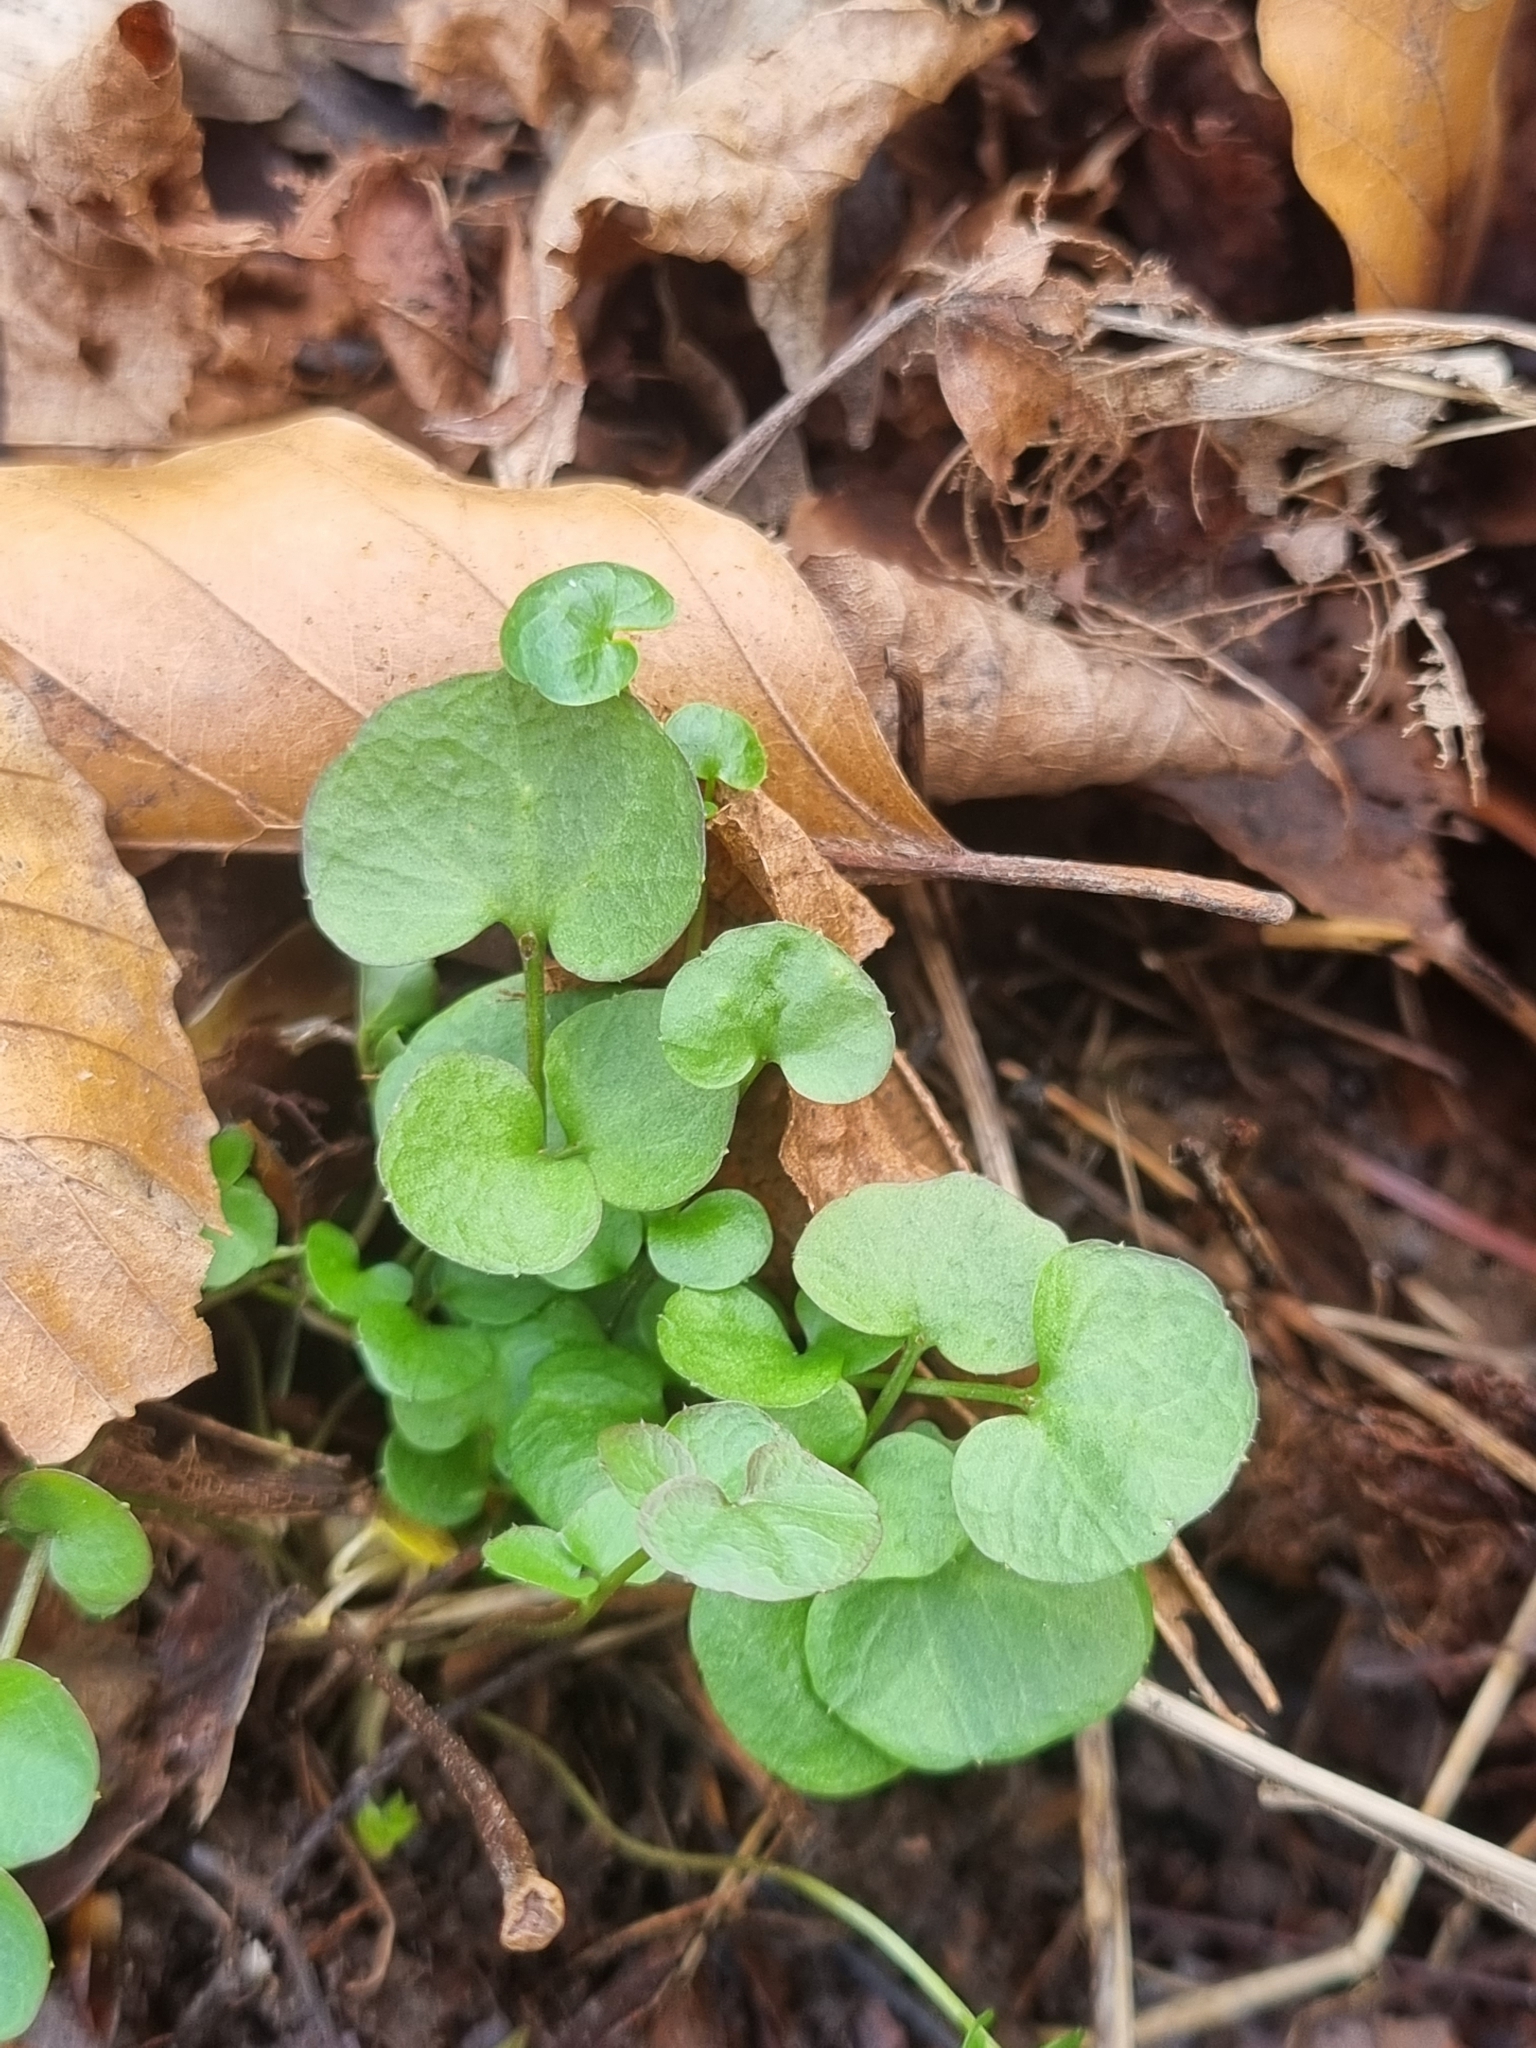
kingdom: Plantae
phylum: Tracheophyta
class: Magnoliopsida
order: Ranunculales
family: Ranunculaceae
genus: Ficaria
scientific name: Ficaria verna
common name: Lesser celandine
